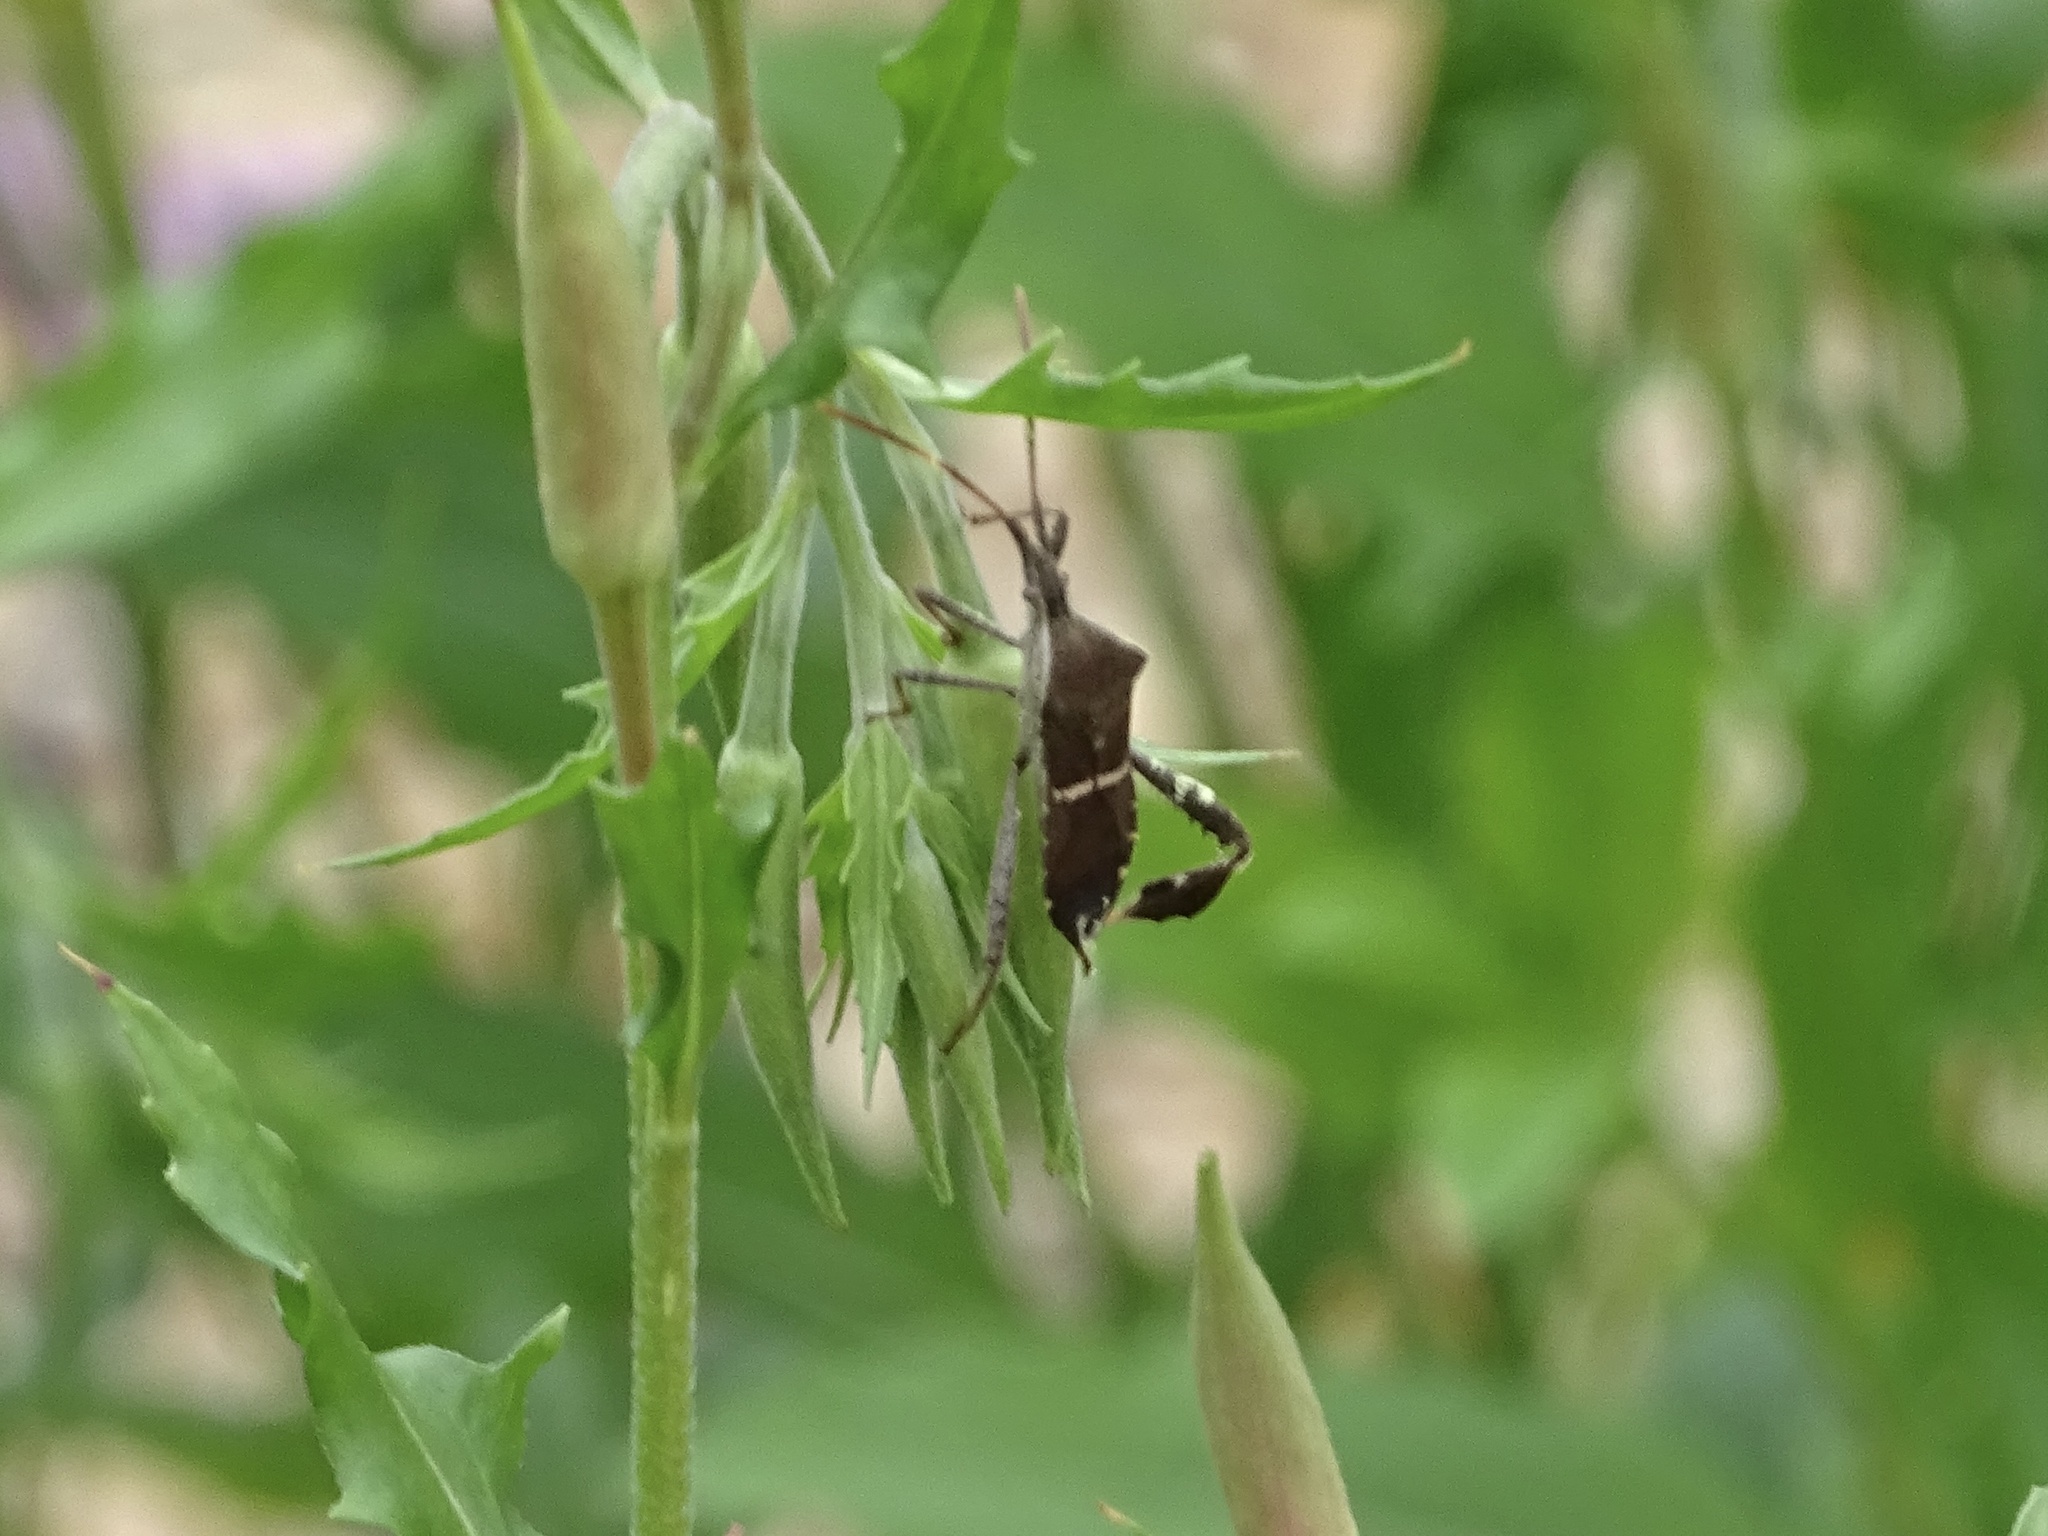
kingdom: Animalia
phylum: Arthropoda
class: Insecta
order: Hemiptera
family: Coreidae
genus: Leptoglossus
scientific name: Leptoglossus phyllopus
